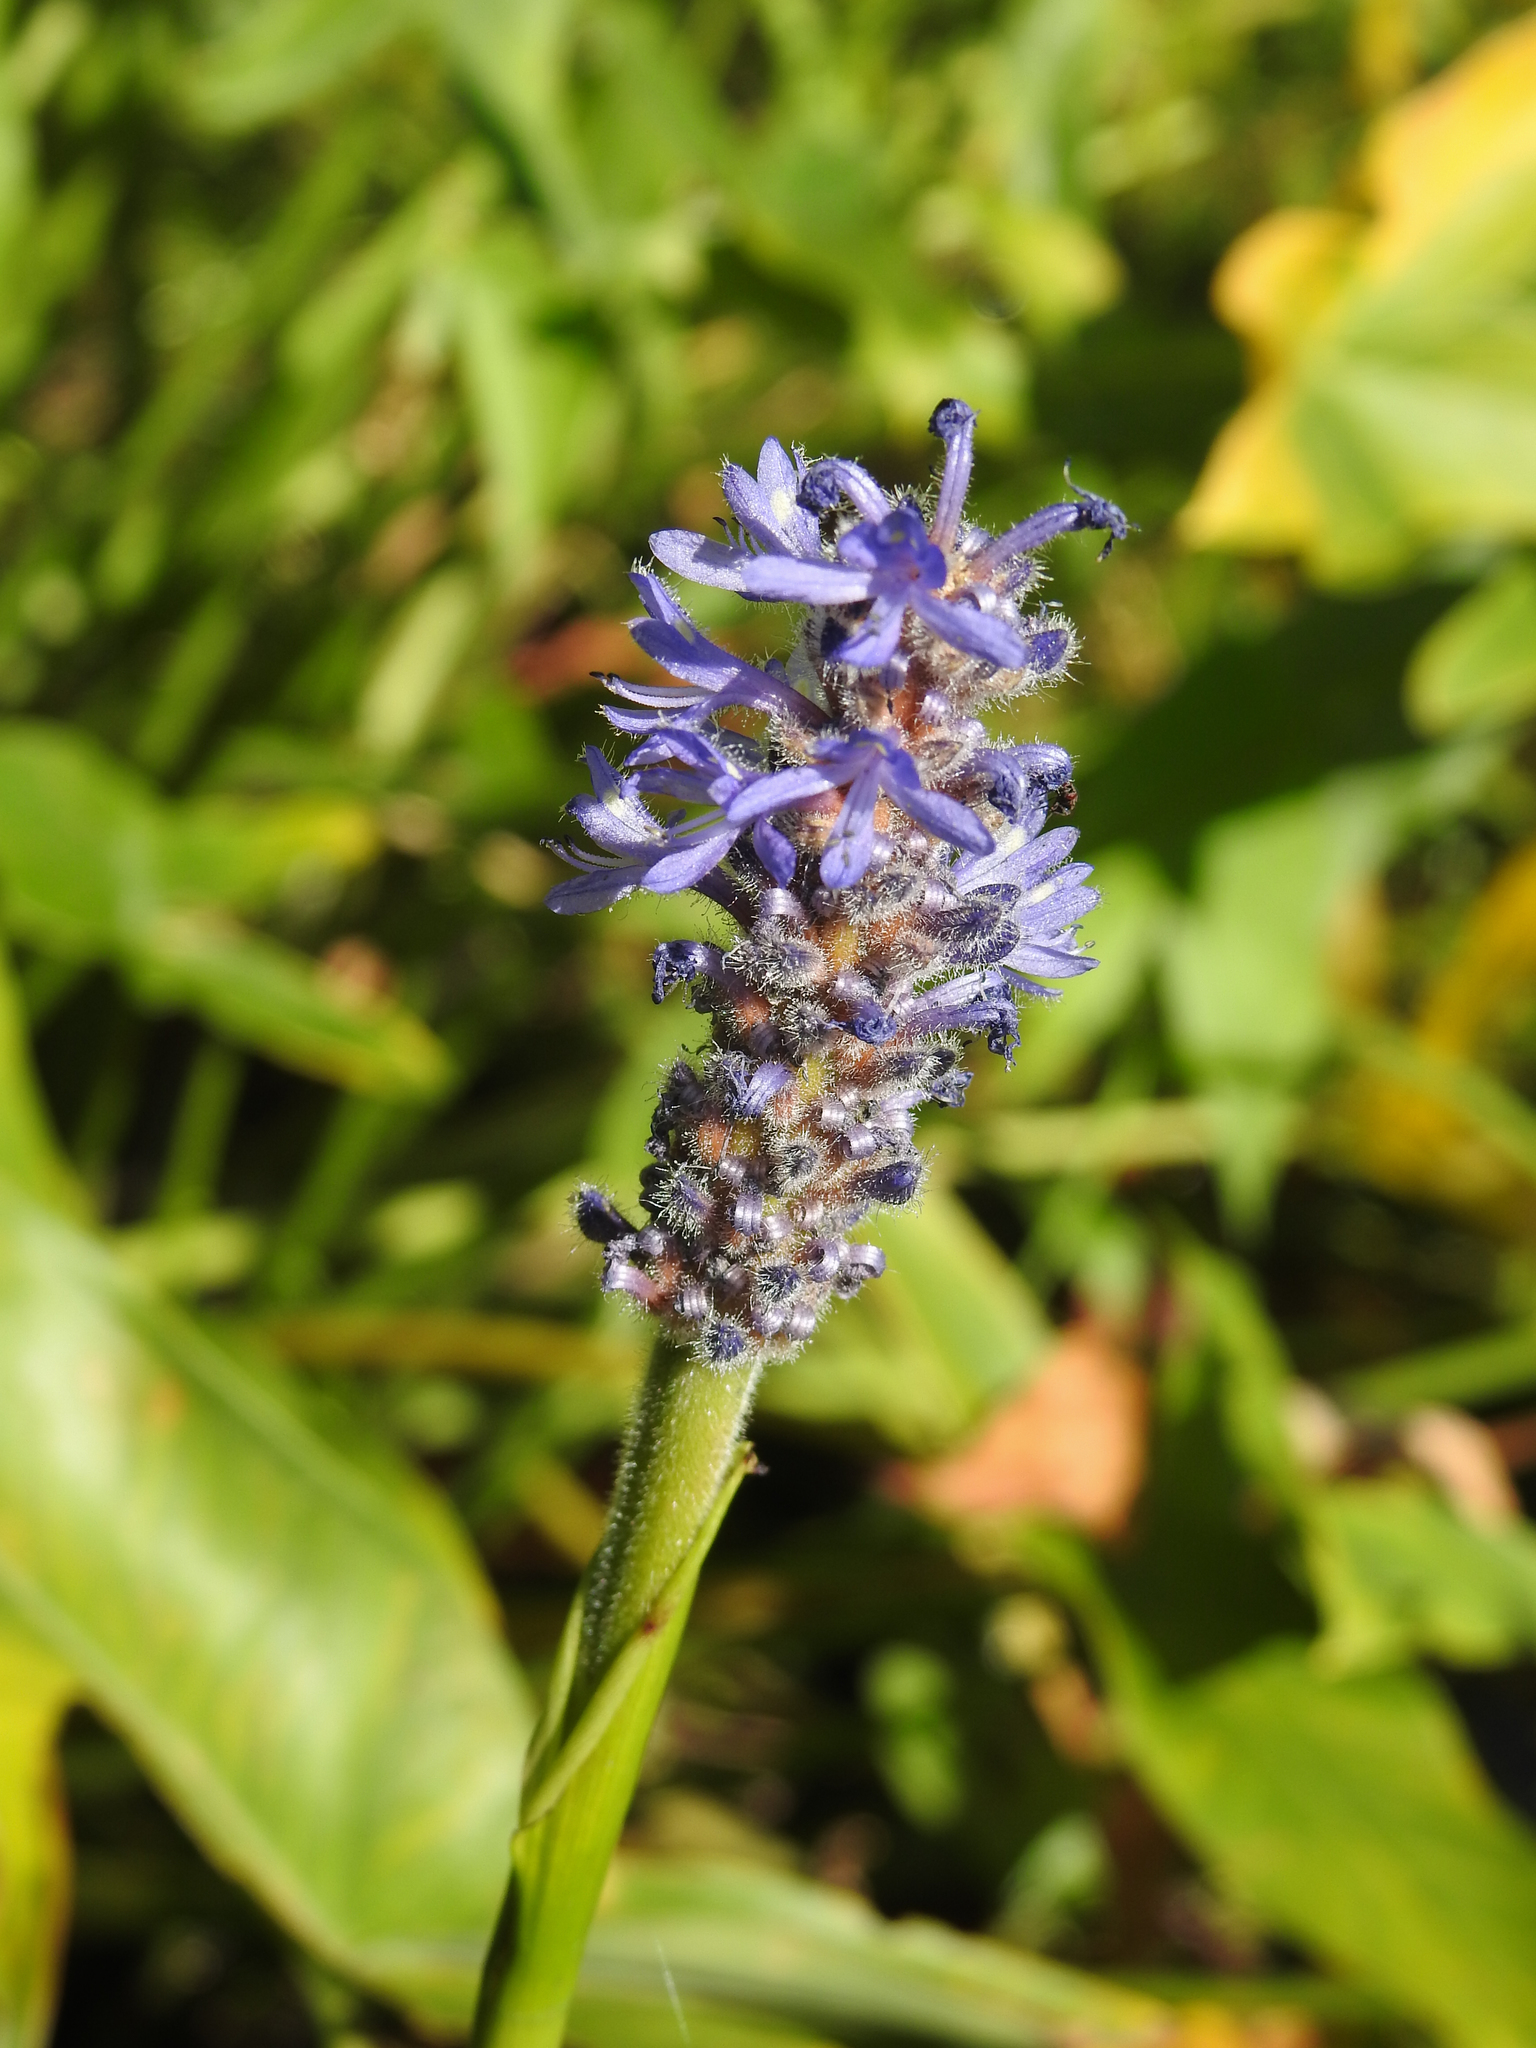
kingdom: Plantae
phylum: Tracheophyta
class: Liliopsida
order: Commelinales
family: Pontederiaceae
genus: Pontederia
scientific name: Pontederia cordata
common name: Pickerelweed
